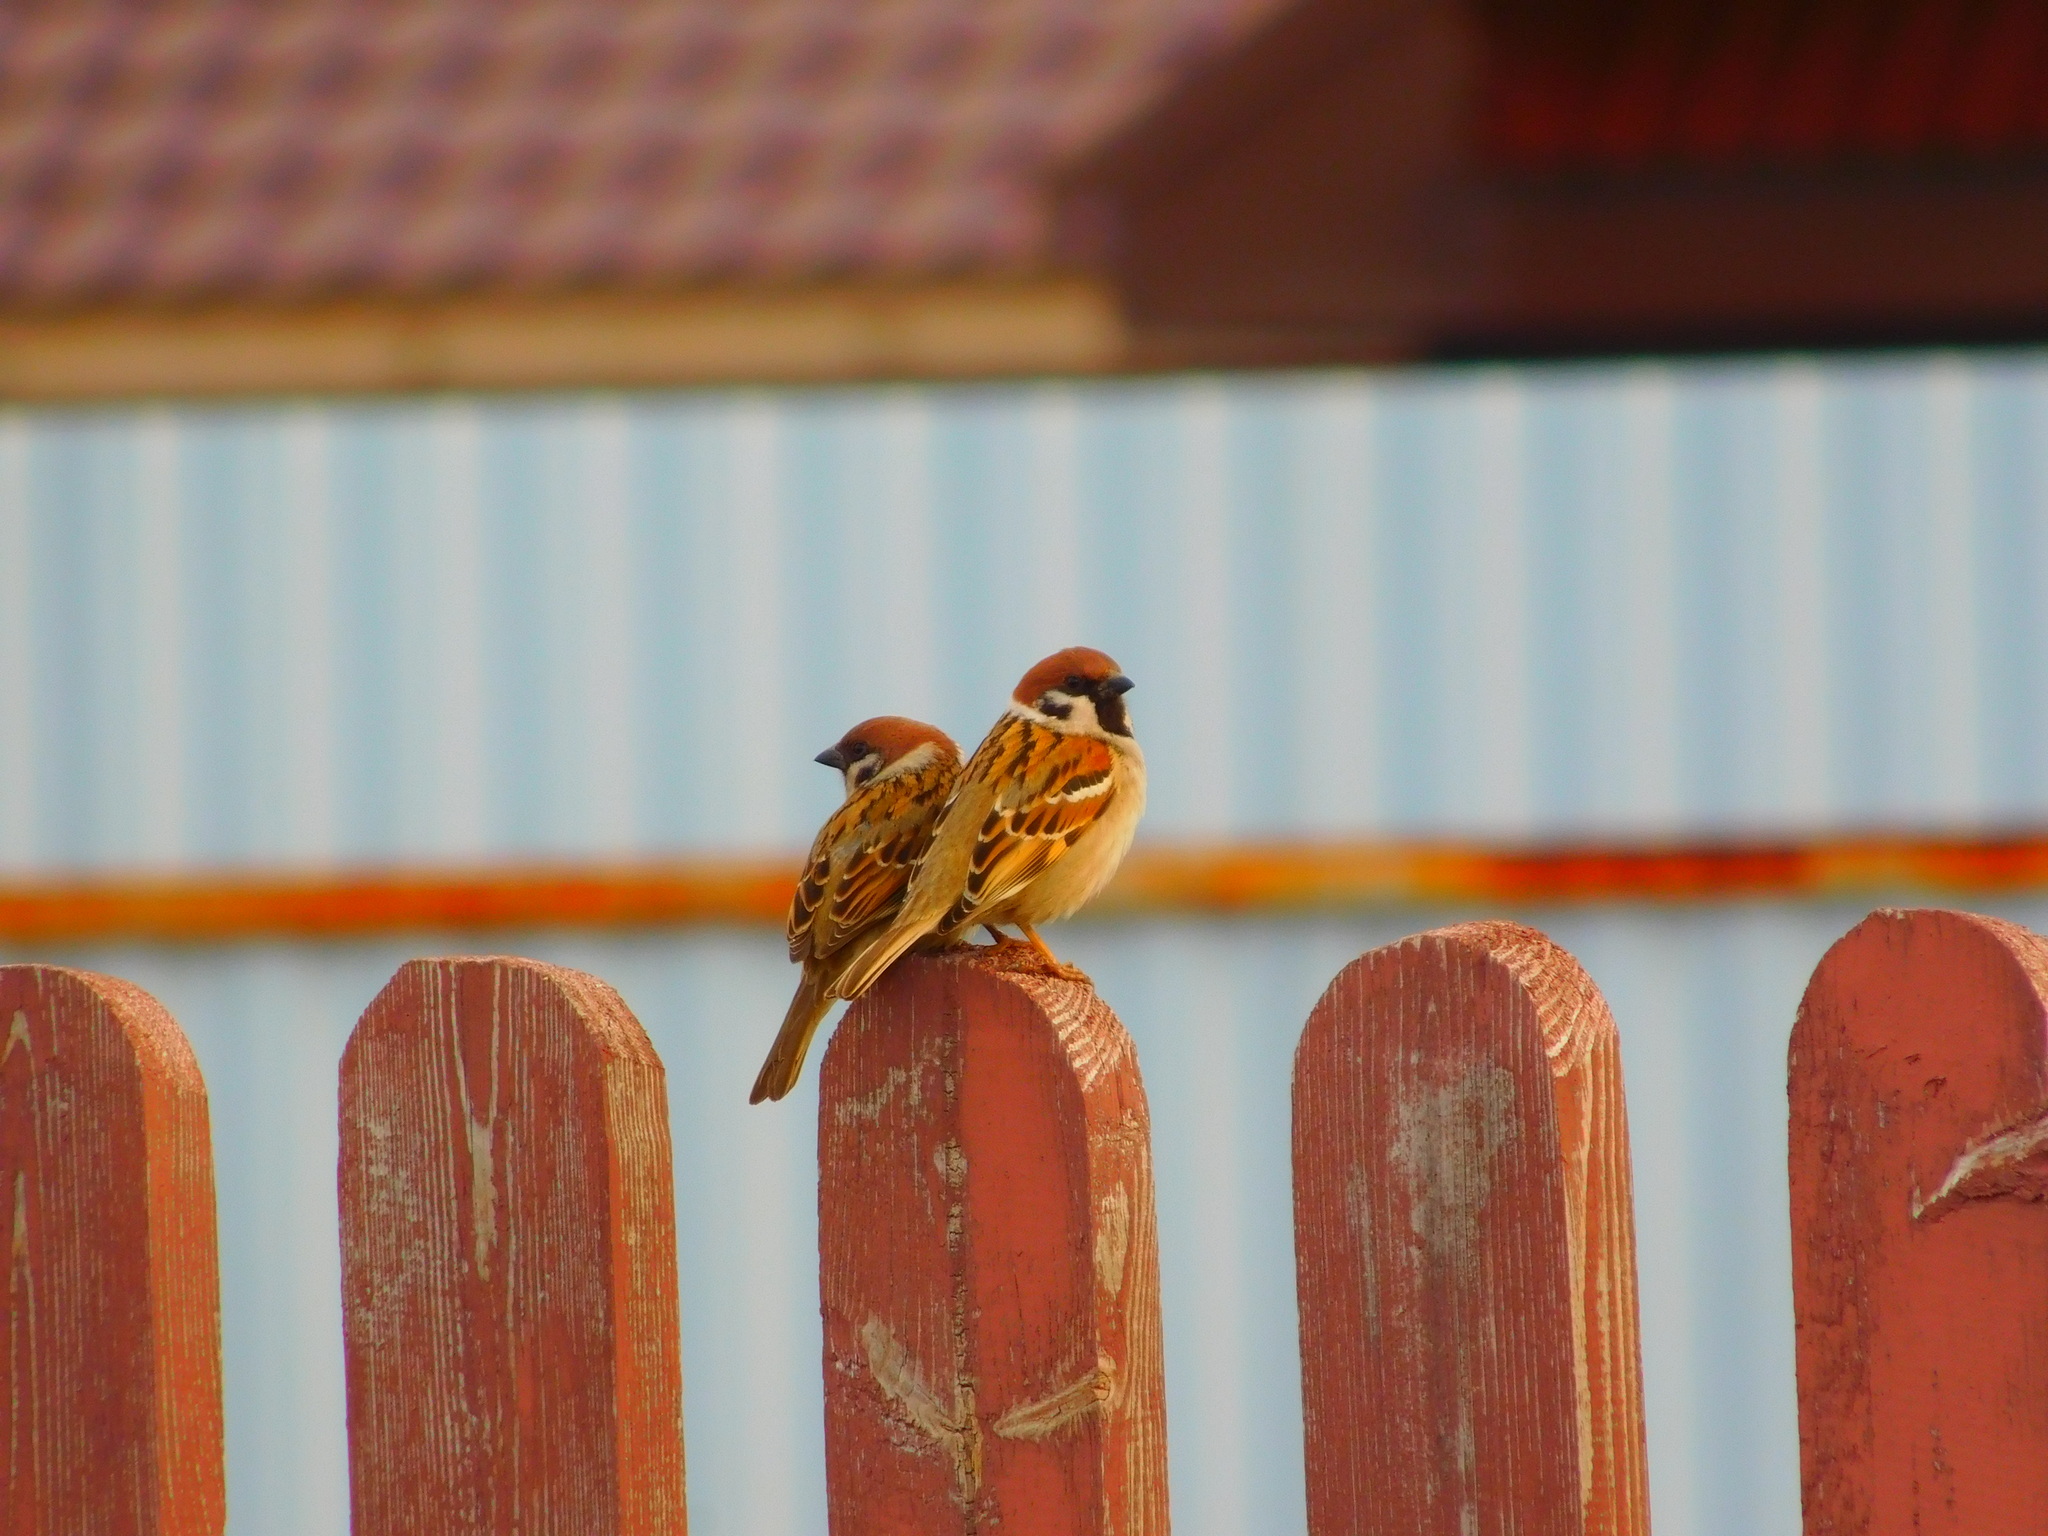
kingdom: Animalia
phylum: Chordata
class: Aves
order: Passeriformes
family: Passeridae
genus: Passer
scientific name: Passer montanus
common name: Eurasian tree sparrow
